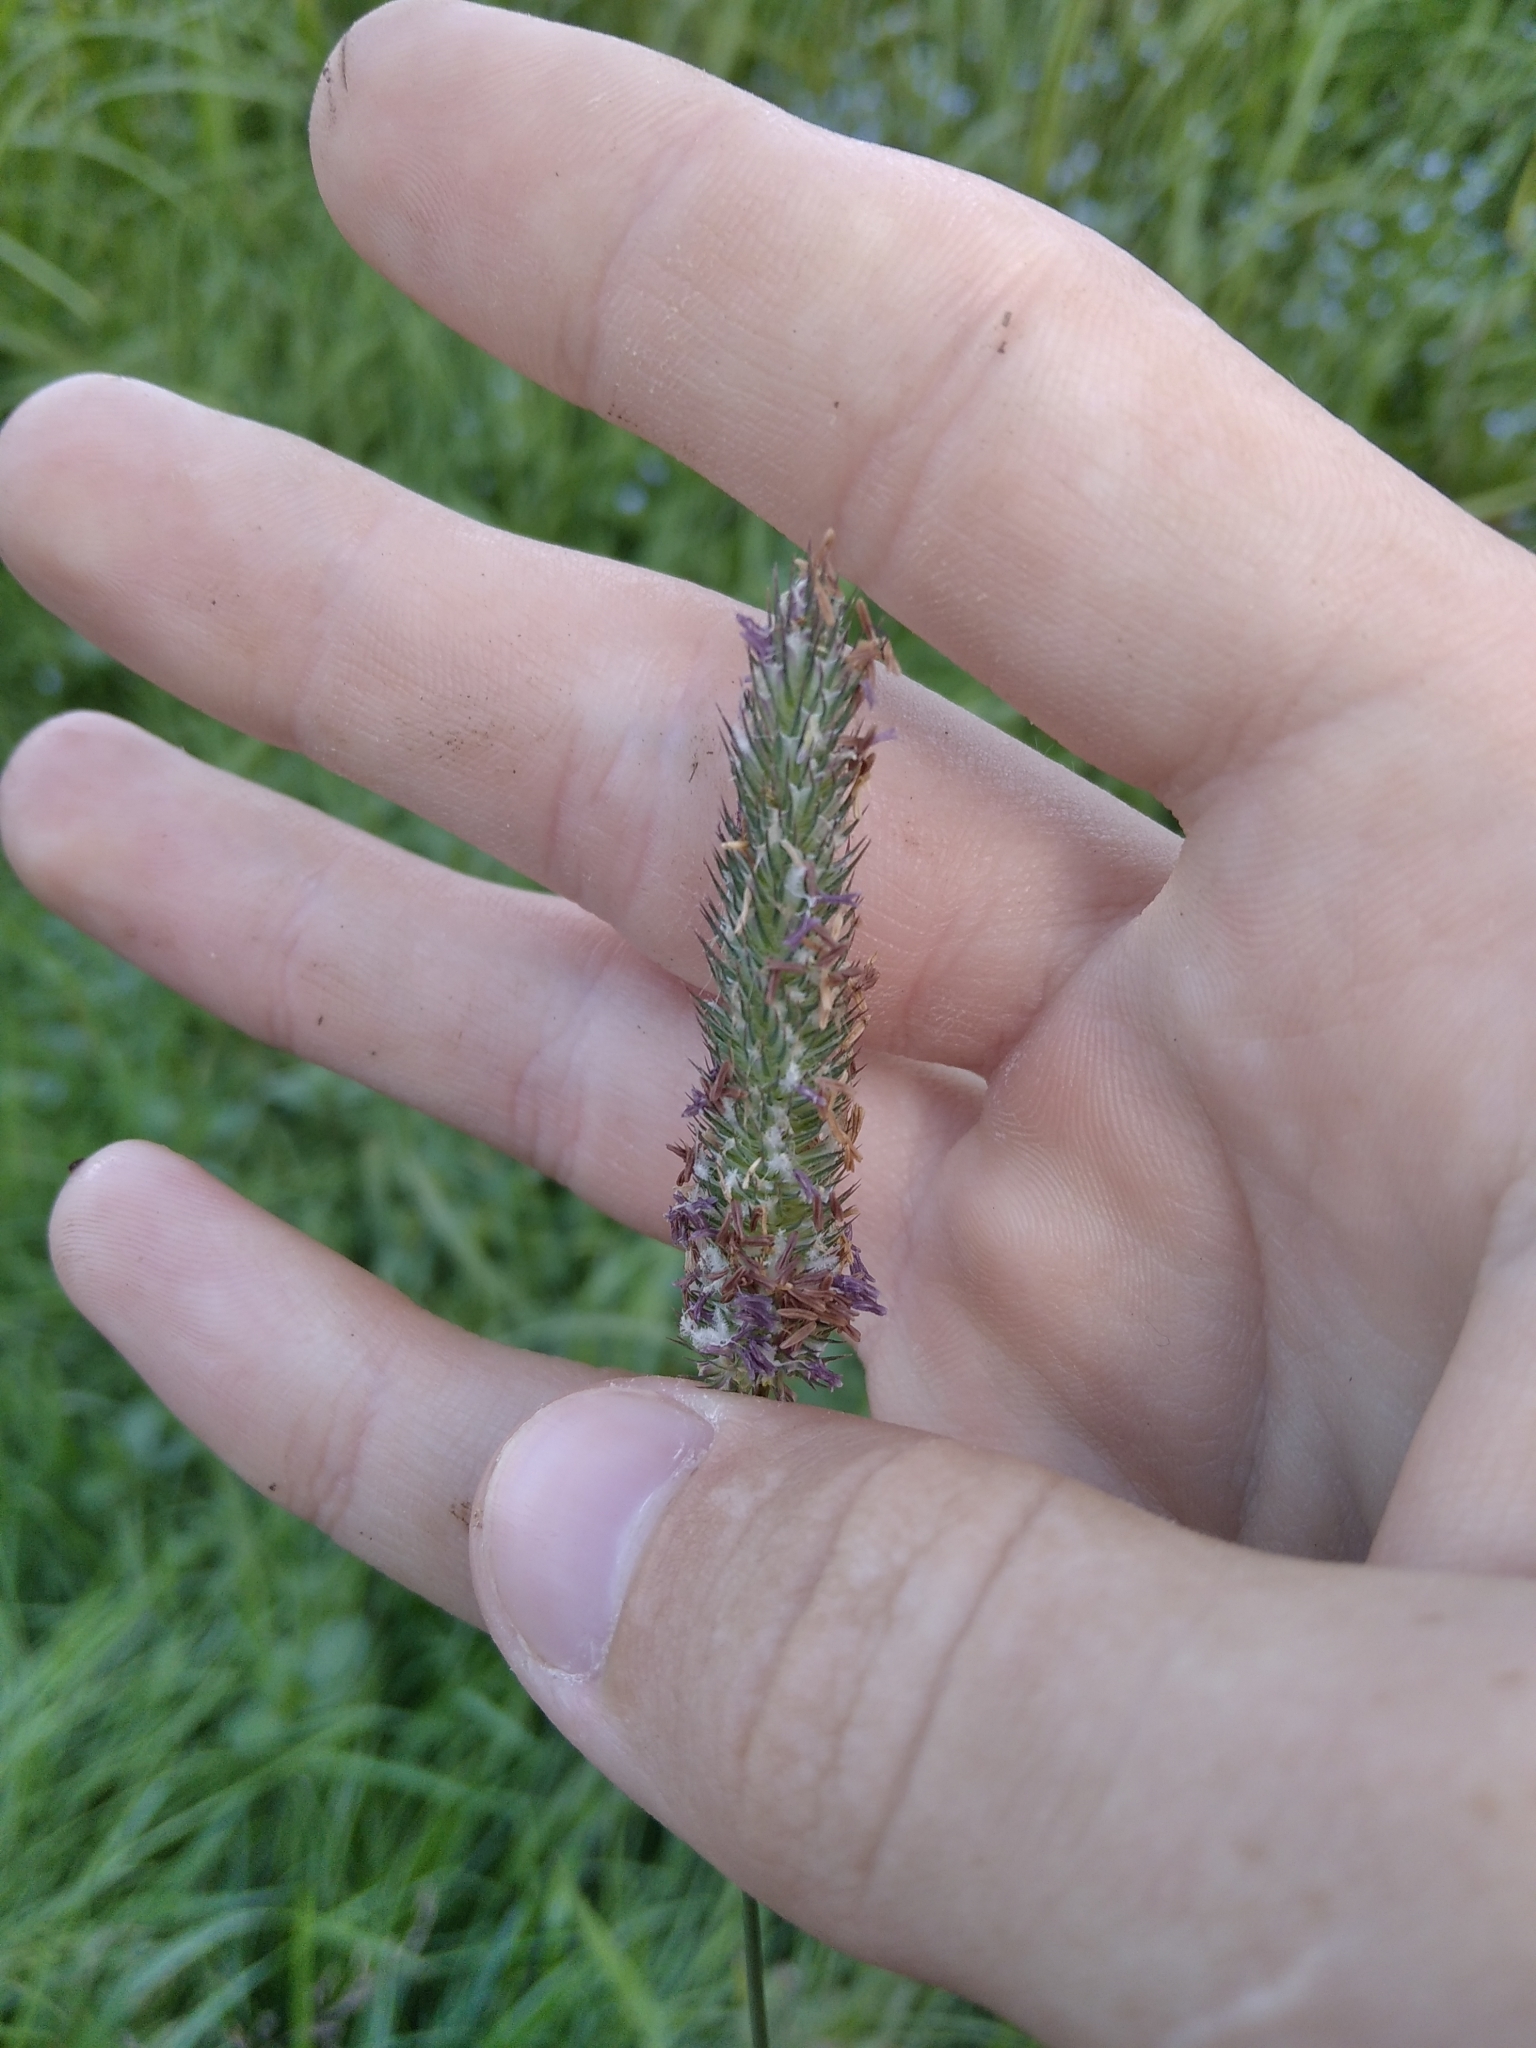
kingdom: Plantae
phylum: Tracheophyta
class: Liliopsida
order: Poales
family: Poaceae
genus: Phleum
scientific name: Phleum pratense
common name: Timothy grass
